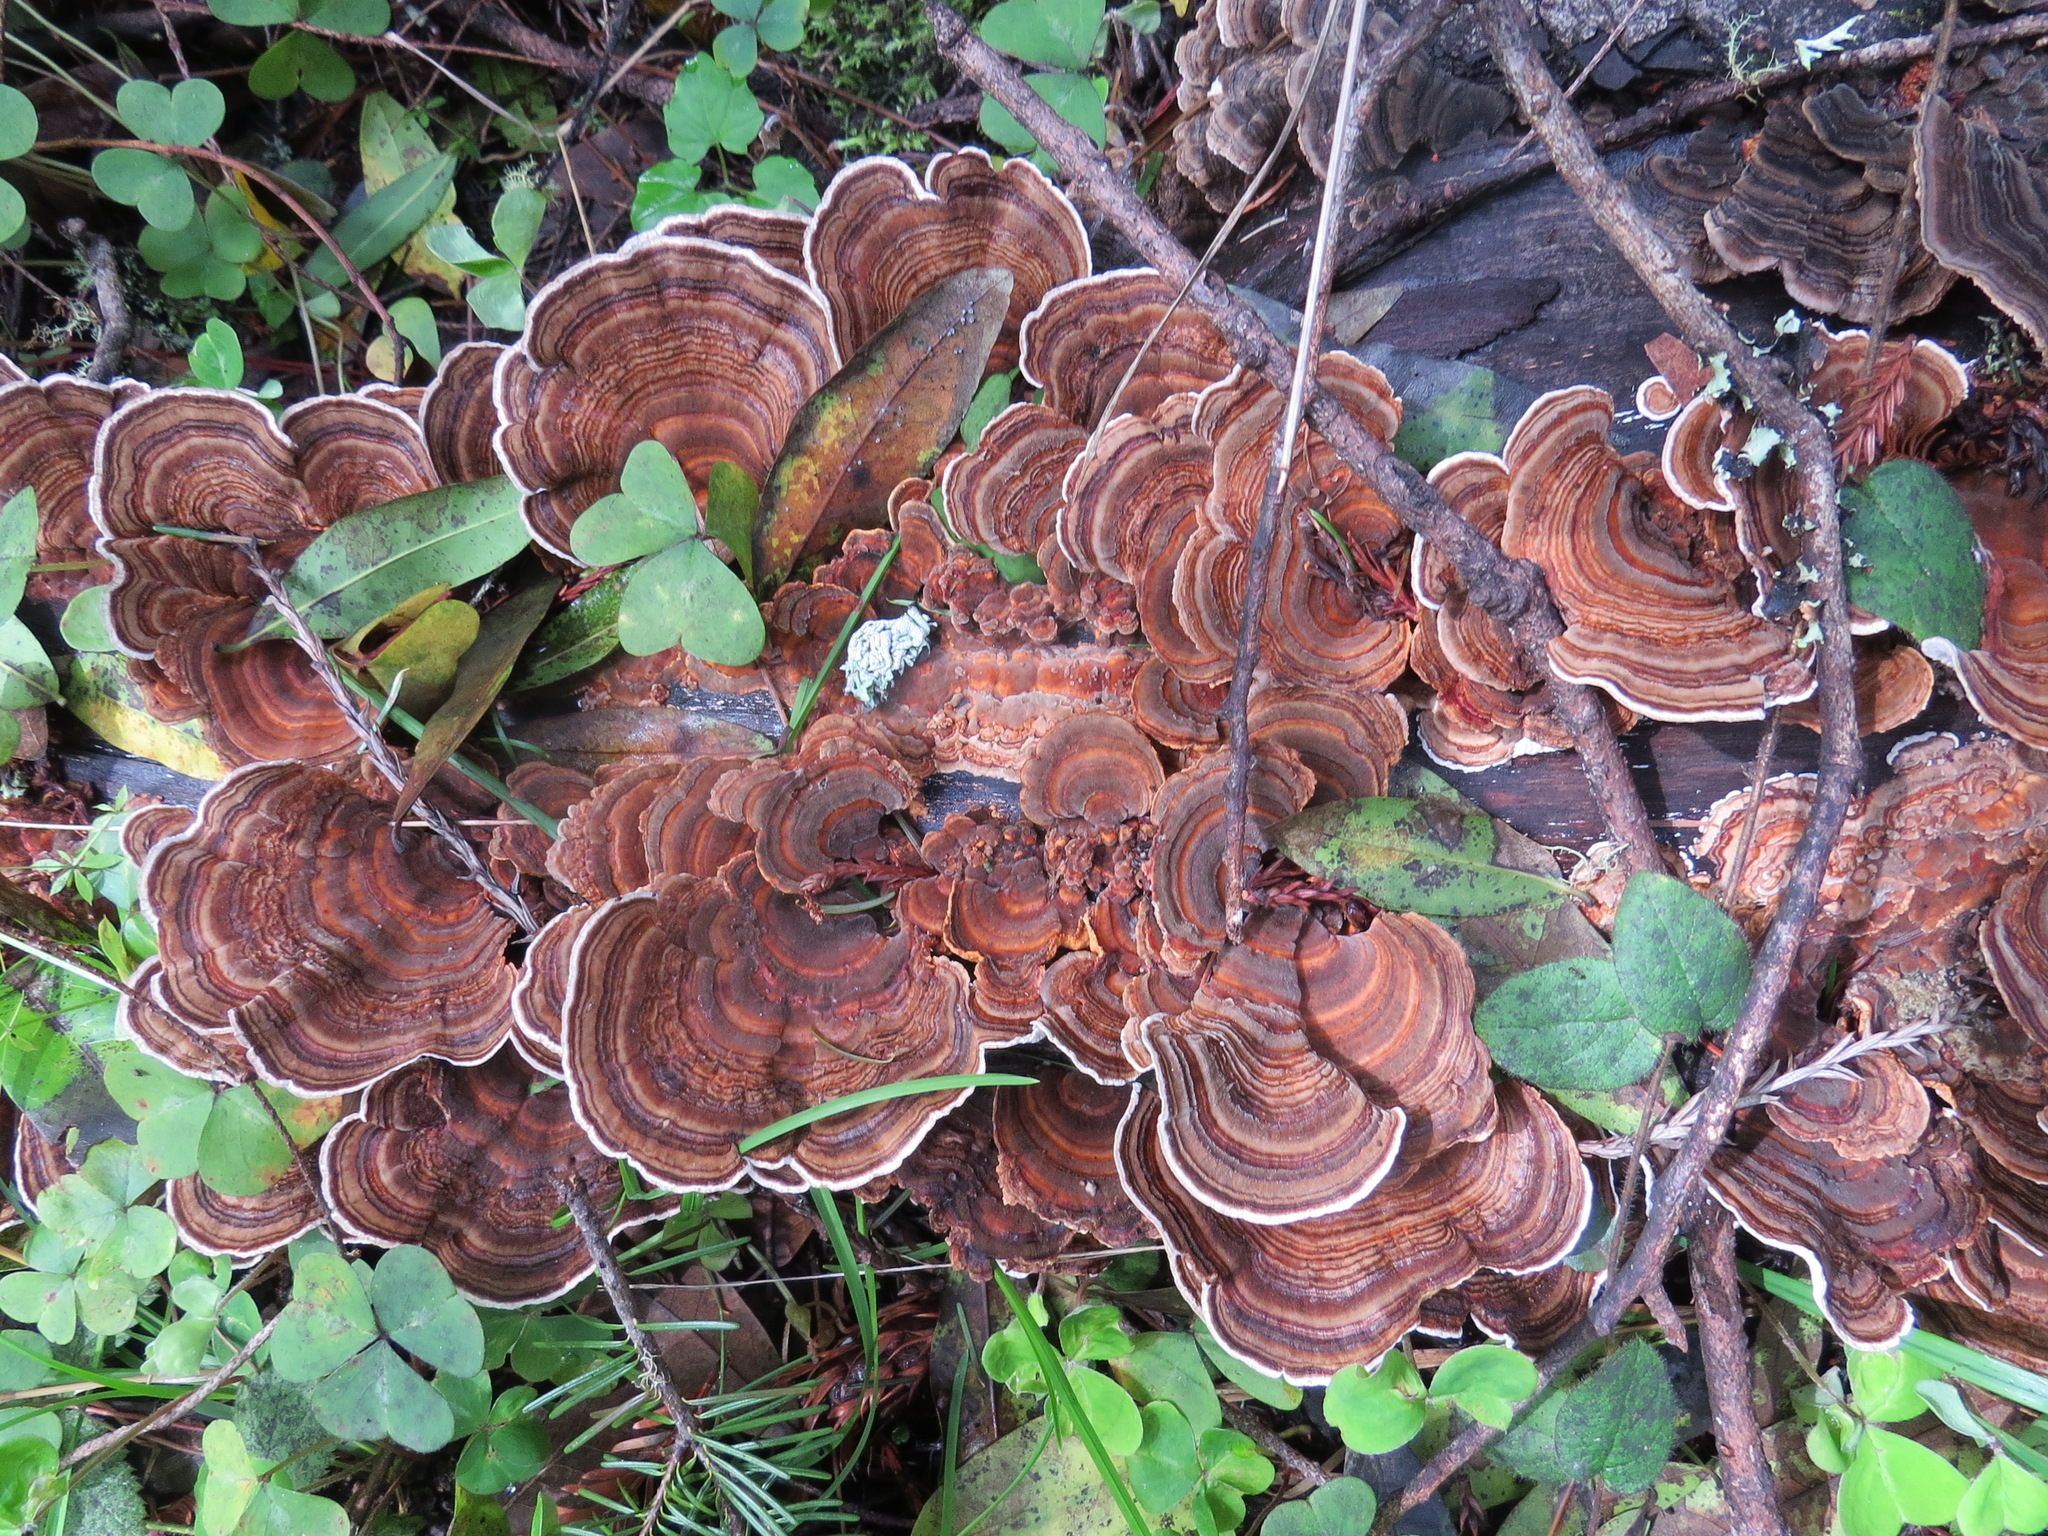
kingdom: Fungi
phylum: Basidiomycota
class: Agaricomycetes
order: Polyporales
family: Polyporaceae
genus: Trametes
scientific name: Trametes versicolor
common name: Turkeytail
